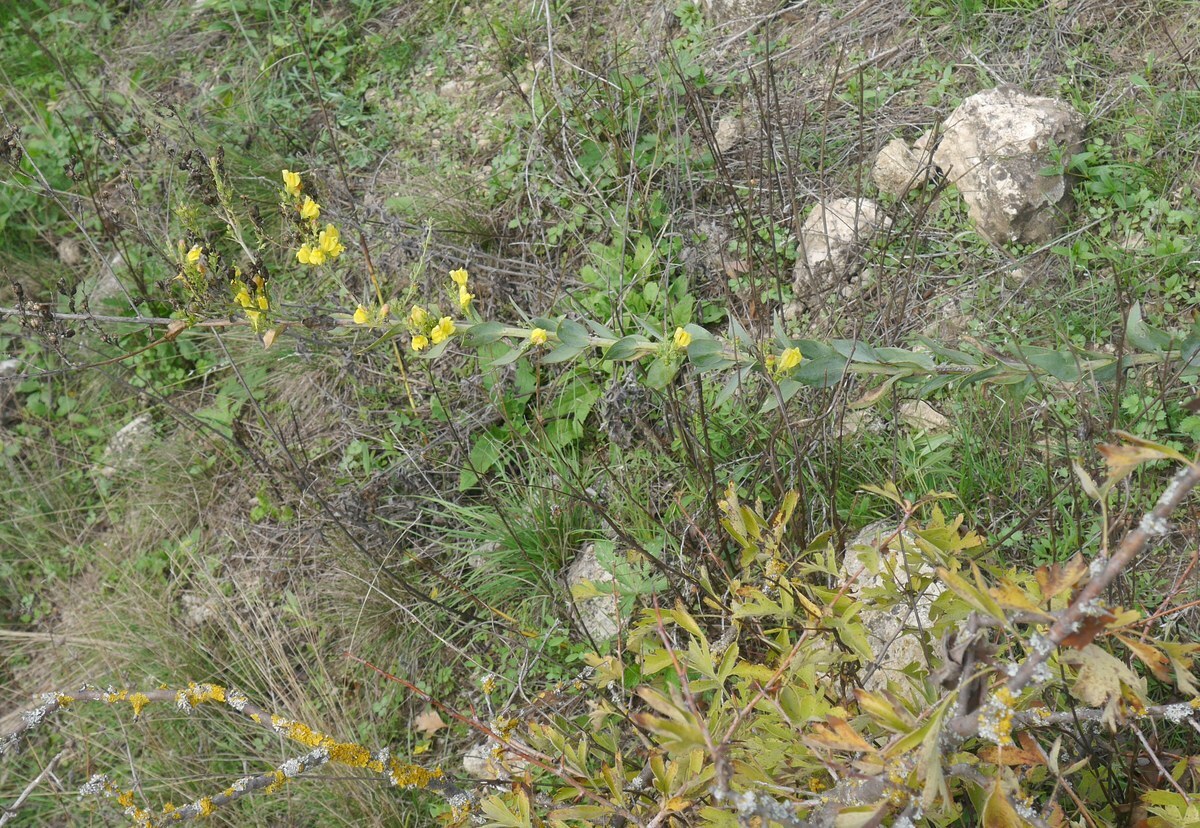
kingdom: Plantae
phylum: Tracheophyta
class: Magnoliopsida
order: Lamiales
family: Plantaginaceae
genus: Linaria
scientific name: Linaria genistifolia
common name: Broomleaf toadflax
